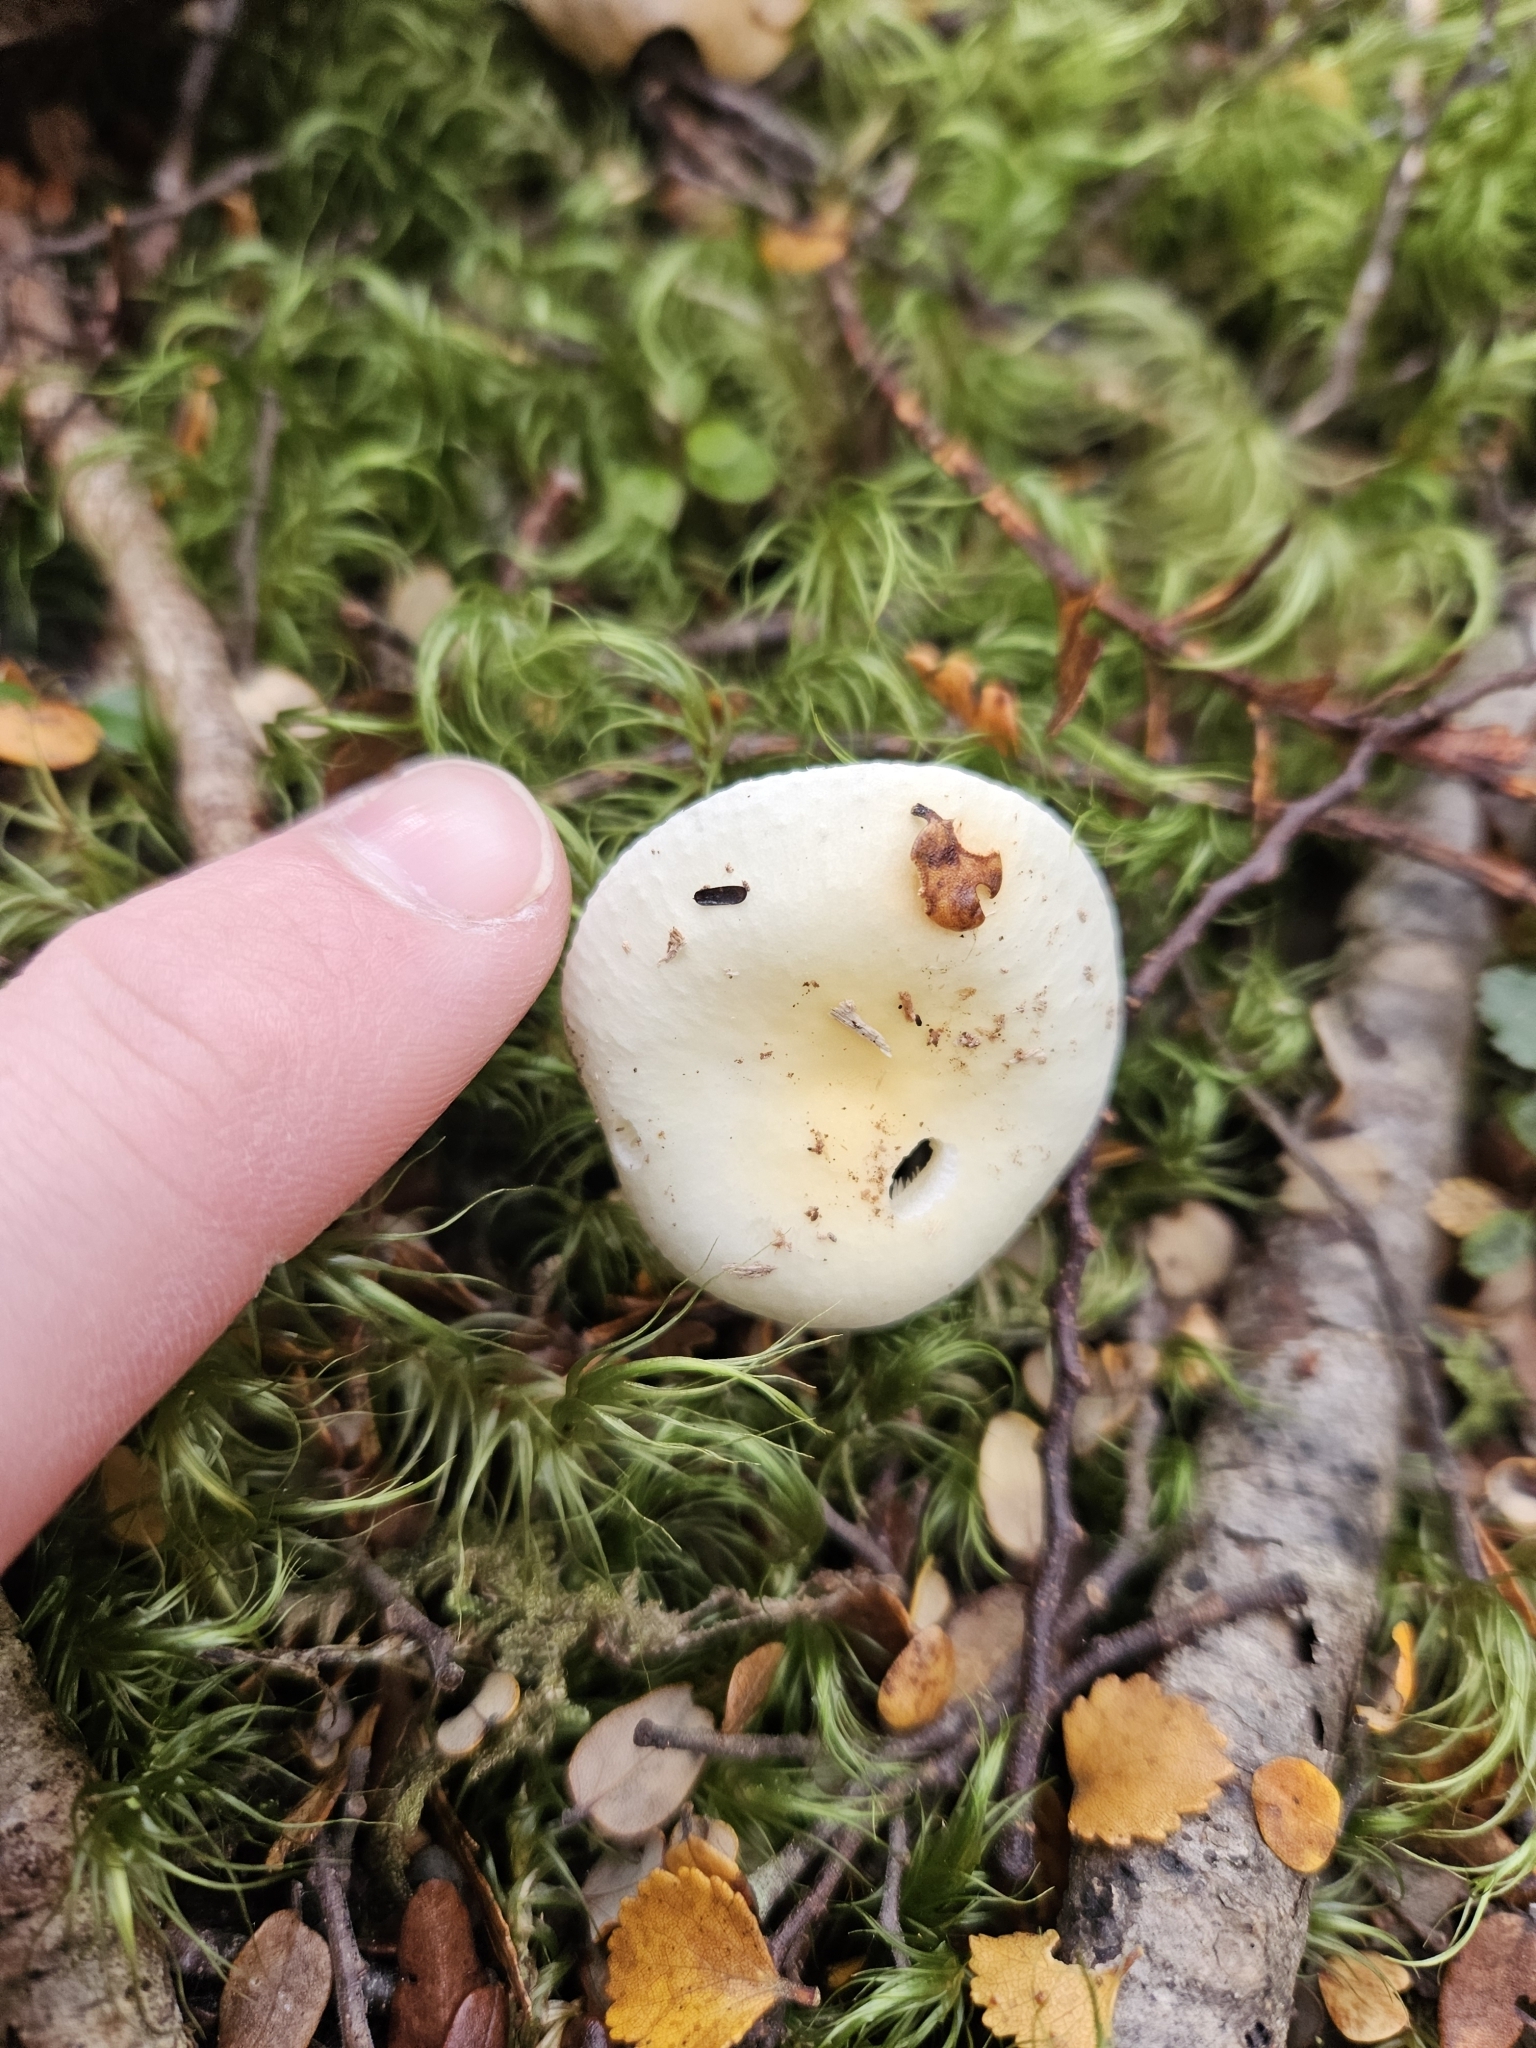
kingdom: Fungi
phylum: Basidiomycota
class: Agaricomycetes
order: Russulales
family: Russulaceae
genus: Russula
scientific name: Russula purpureotincta
